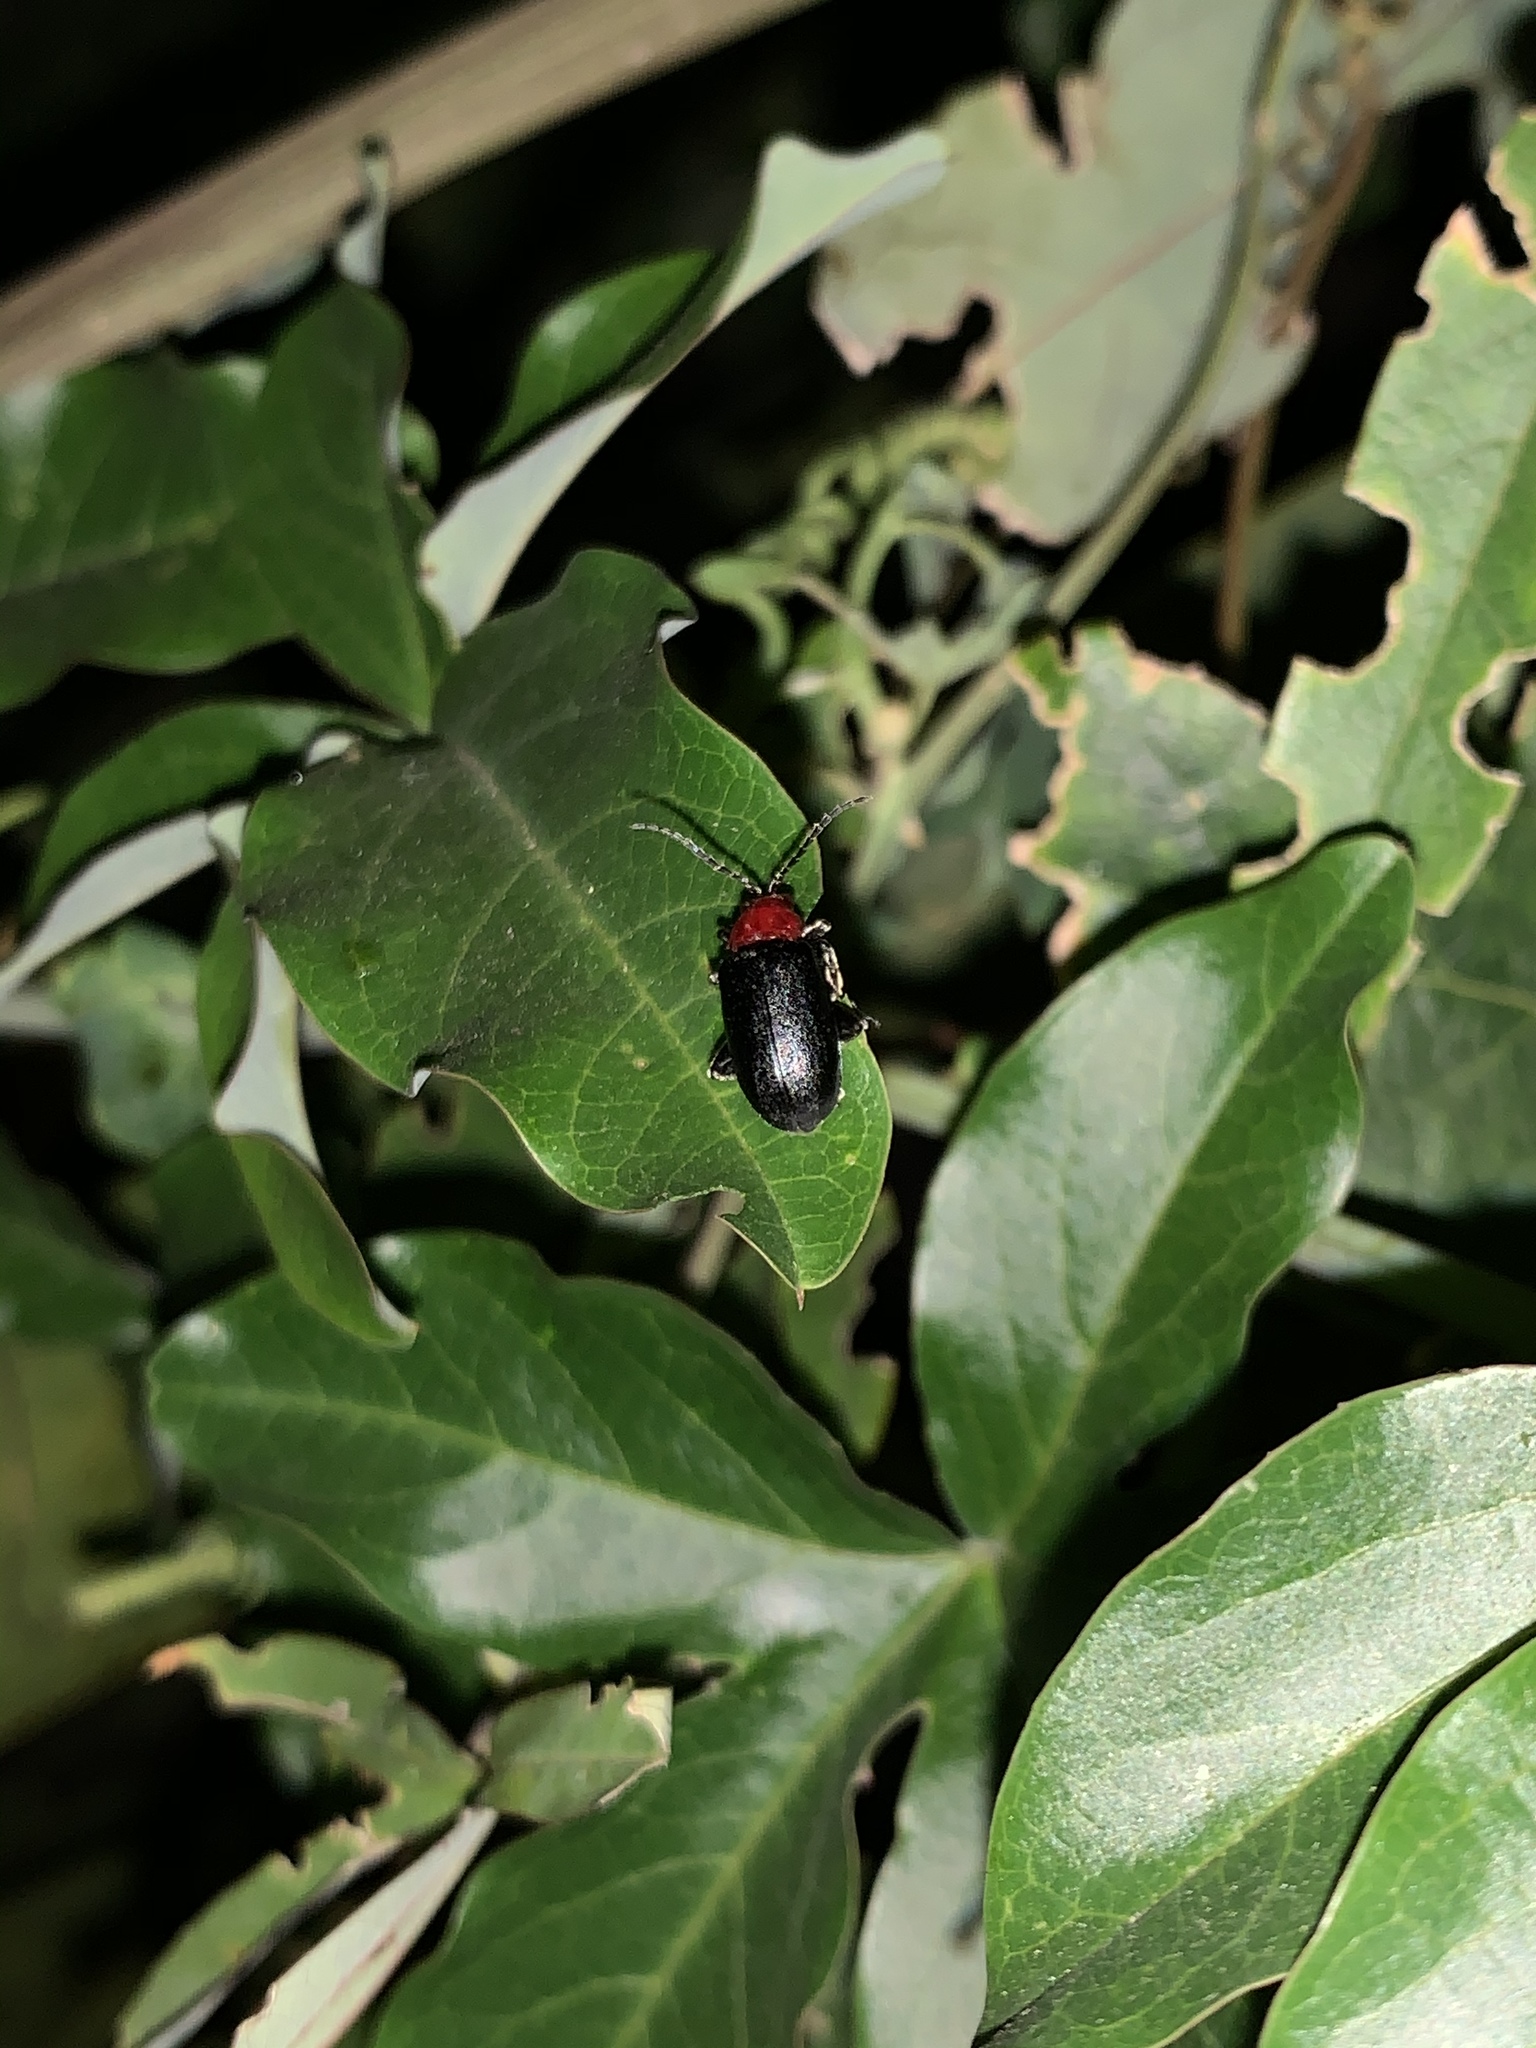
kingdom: Animalia
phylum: Arthropoda
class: Insecta
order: Coleoptera
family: Chrysomelidae
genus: Cacoscelis
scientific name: Cacoscelis
